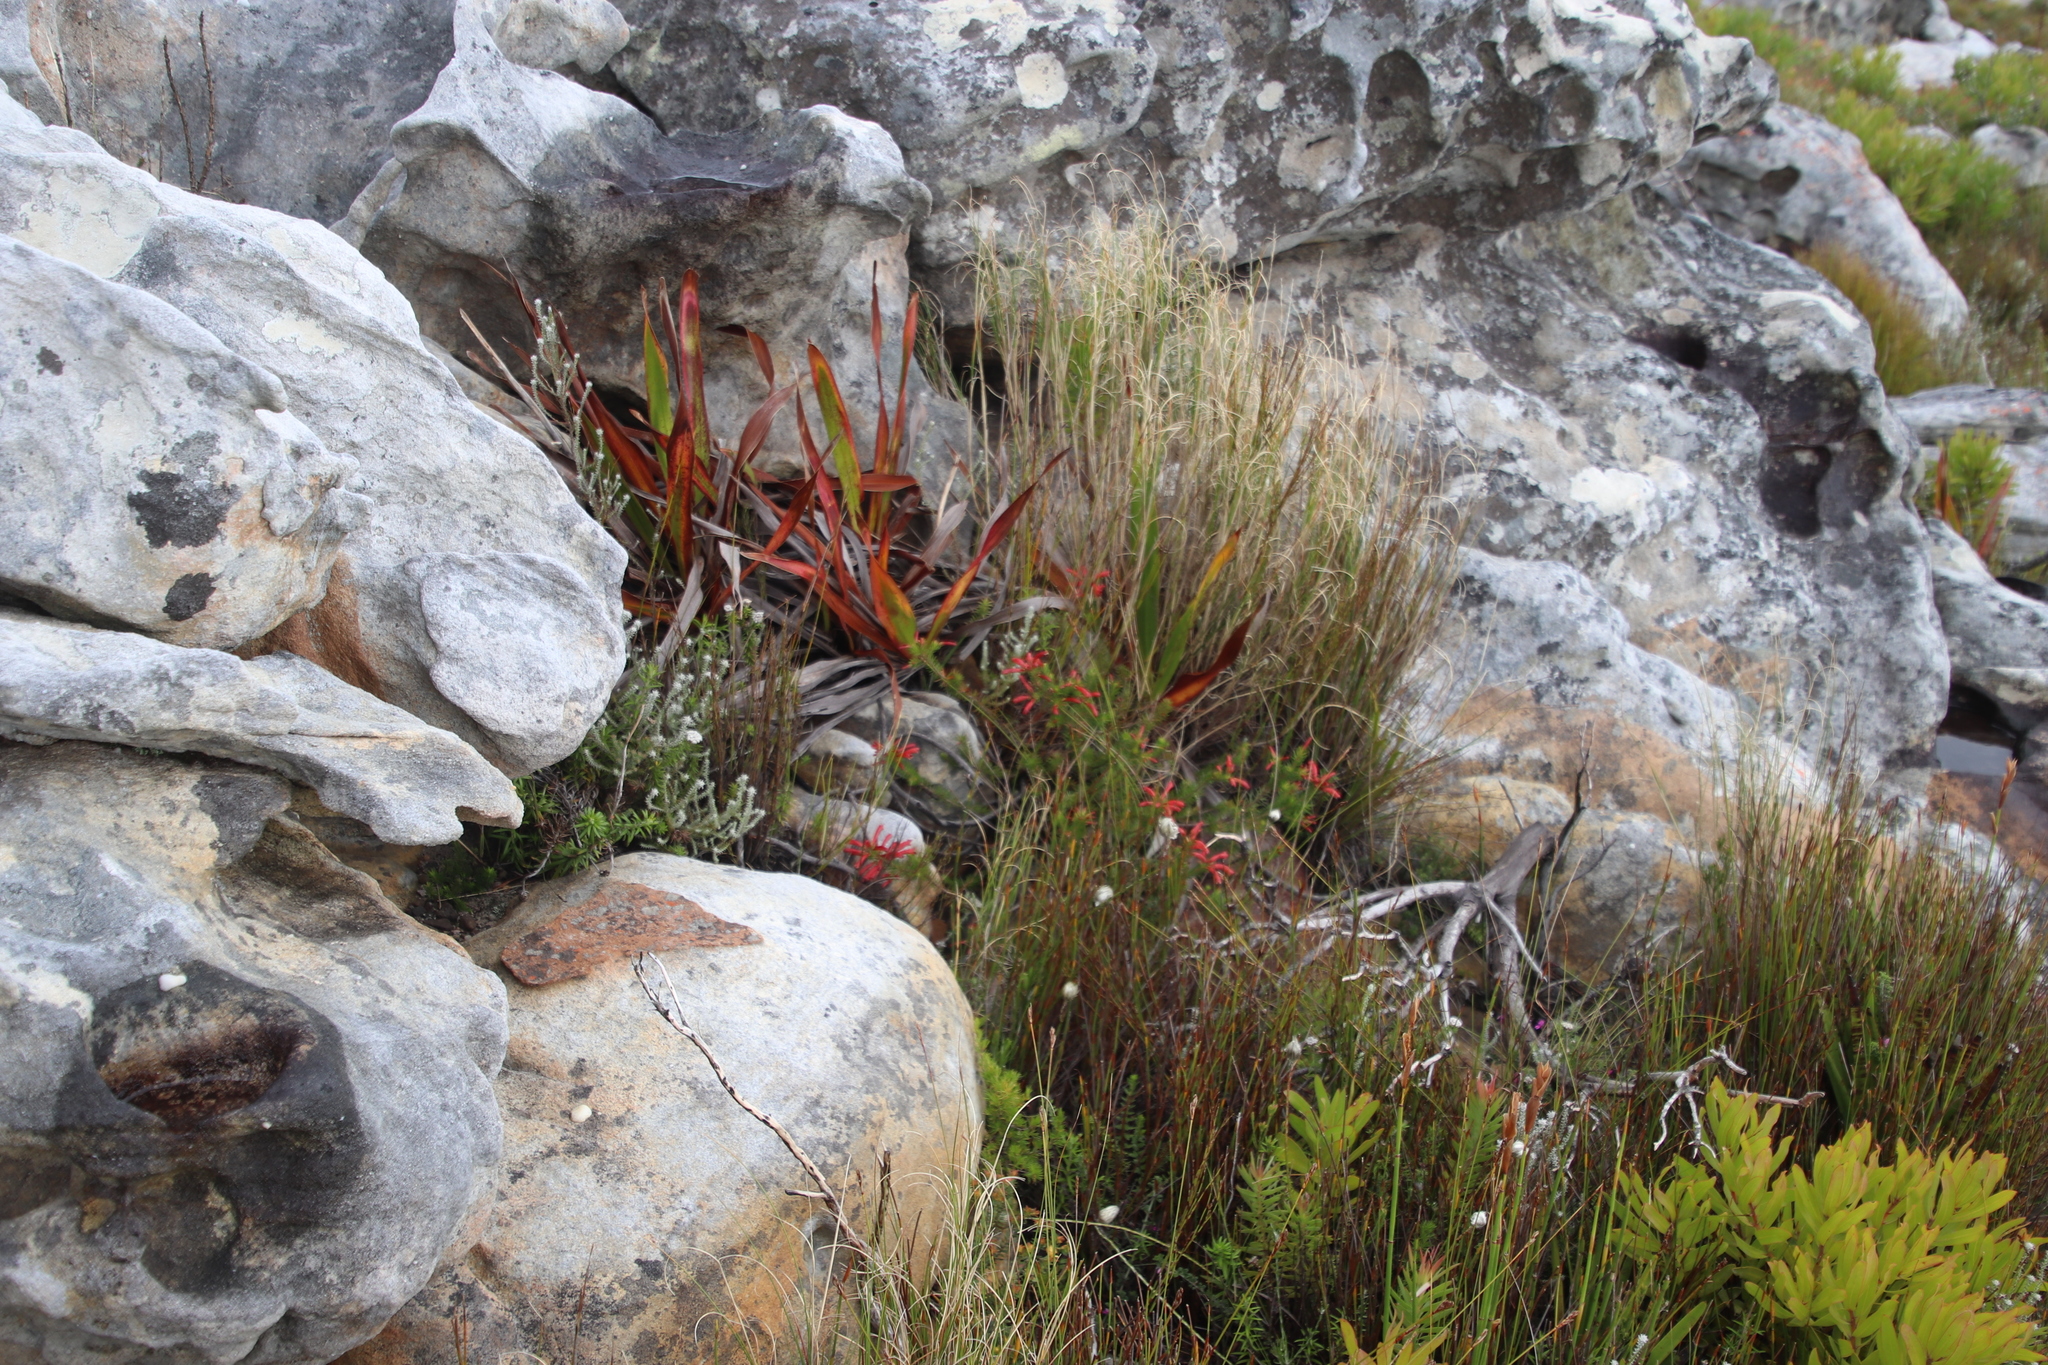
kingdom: Plantae
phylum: Tracheophyta
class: Magnoliopsida
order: Ericales
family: Ericaceae
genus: Erica
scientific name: Erica nevillei
